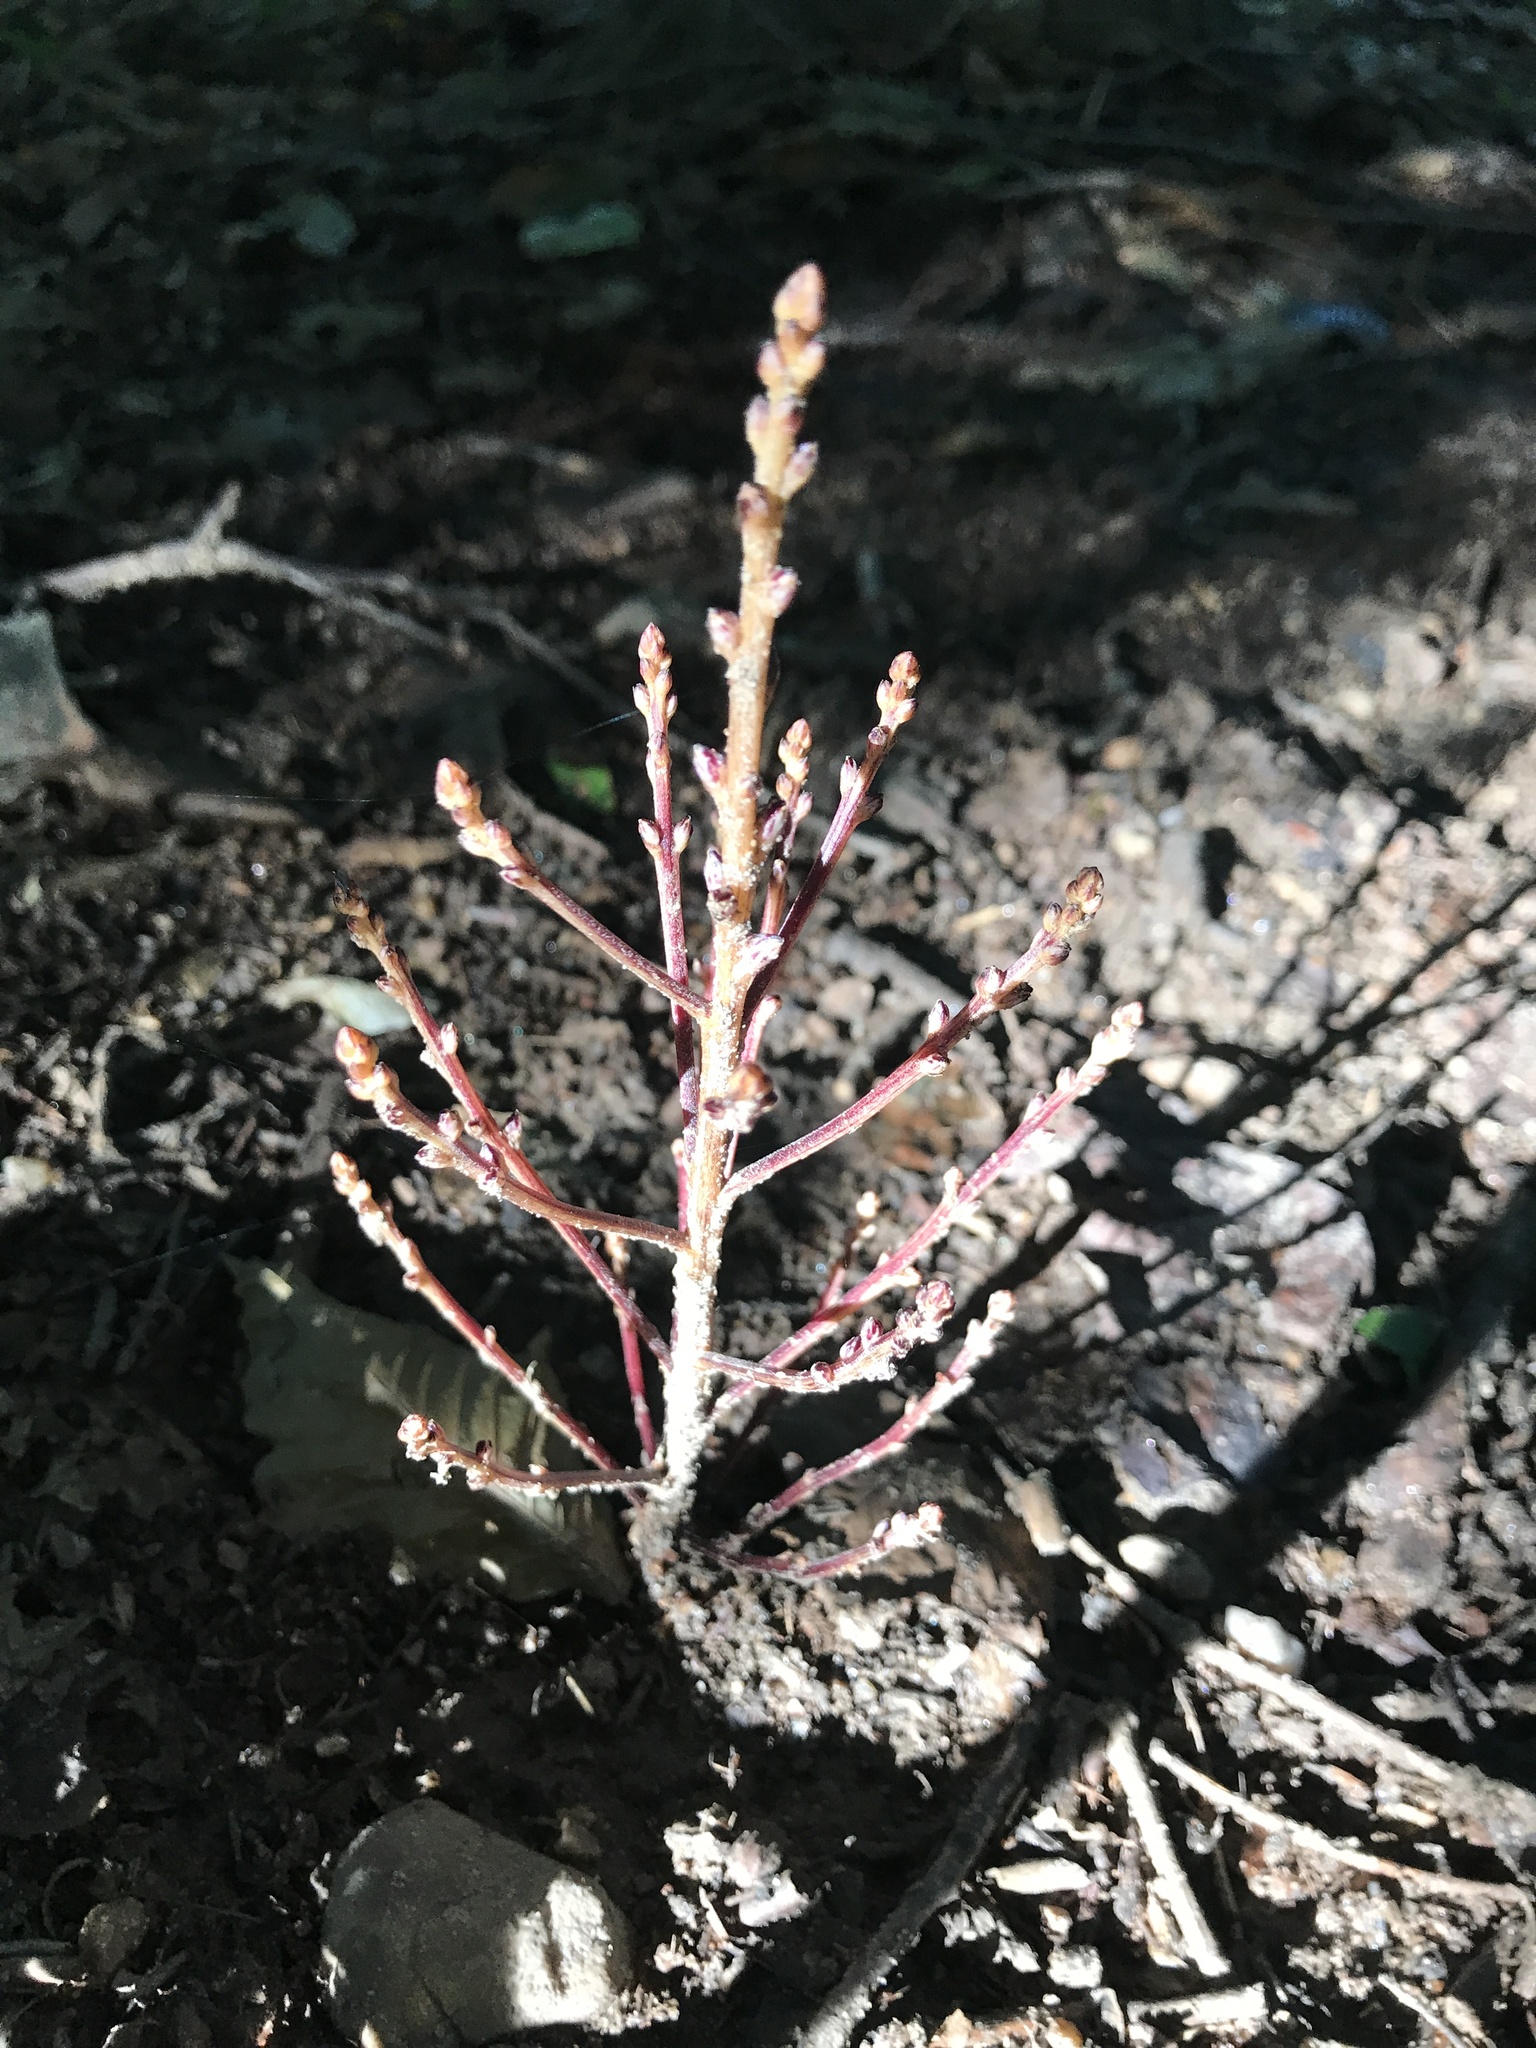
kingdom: Plantae
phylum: Tracheophyta
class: Magnoliopsida
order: Lamiales
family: Orobanchaceae
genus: Epifagus
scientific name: Epifagus virginiana
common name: Beechdrops
